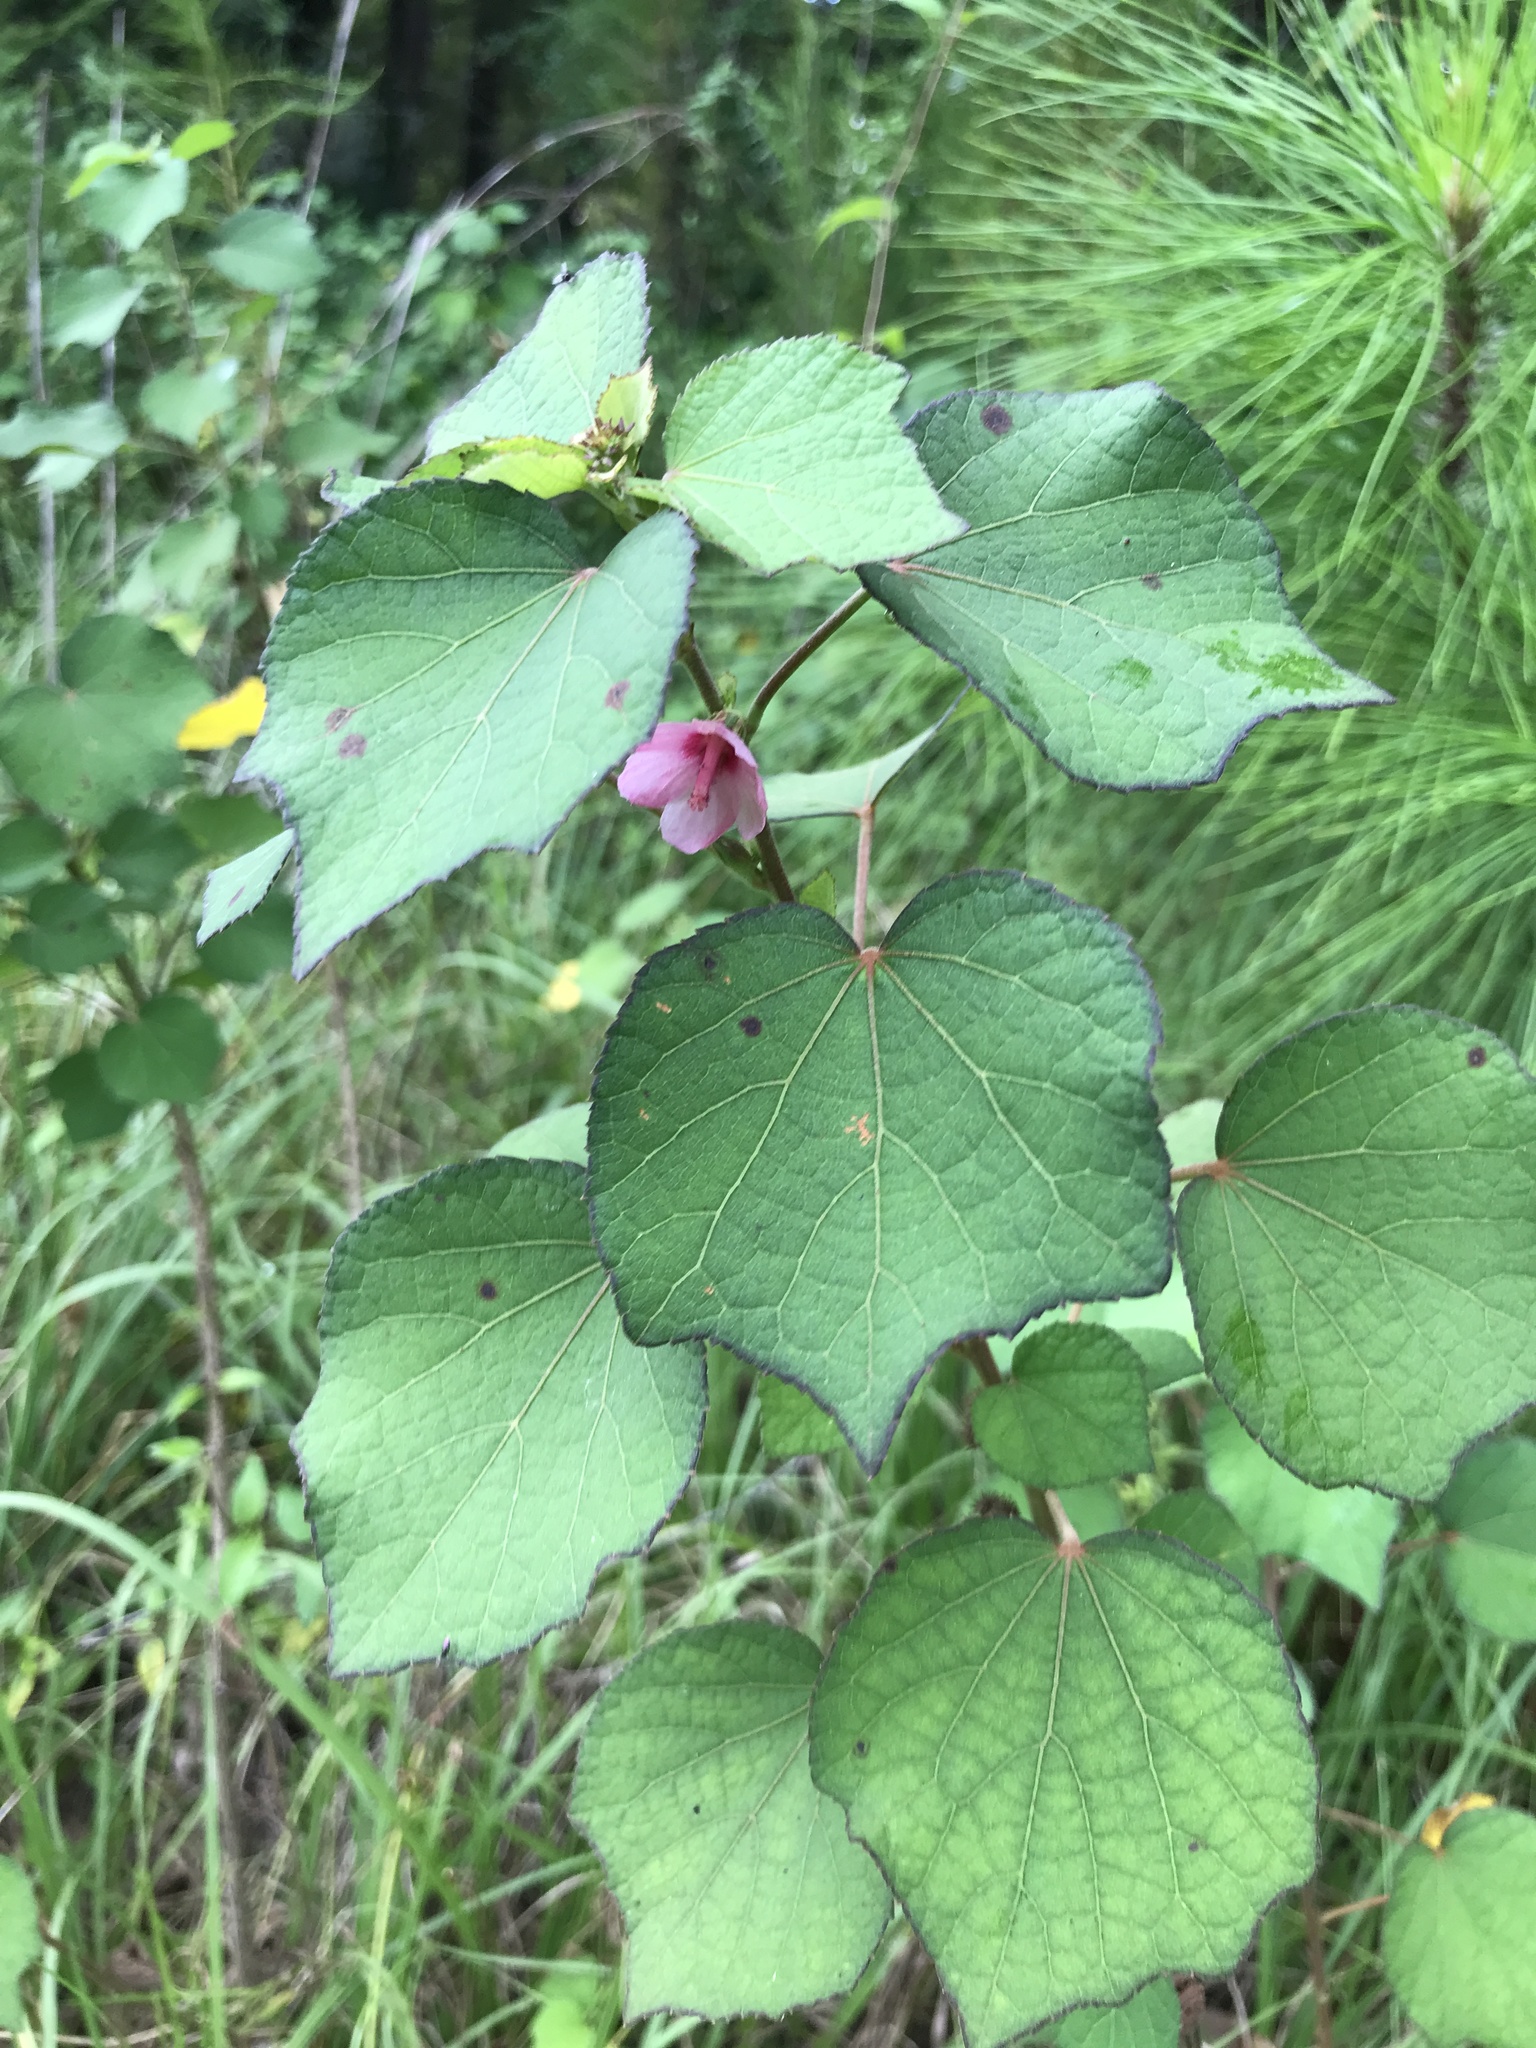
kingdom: Plantae
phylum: Tracheophyta
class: Magnoliopsida
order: Malvales
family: Malvaceae
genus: Urena
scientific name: Urena lobata
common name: Caesarweed
